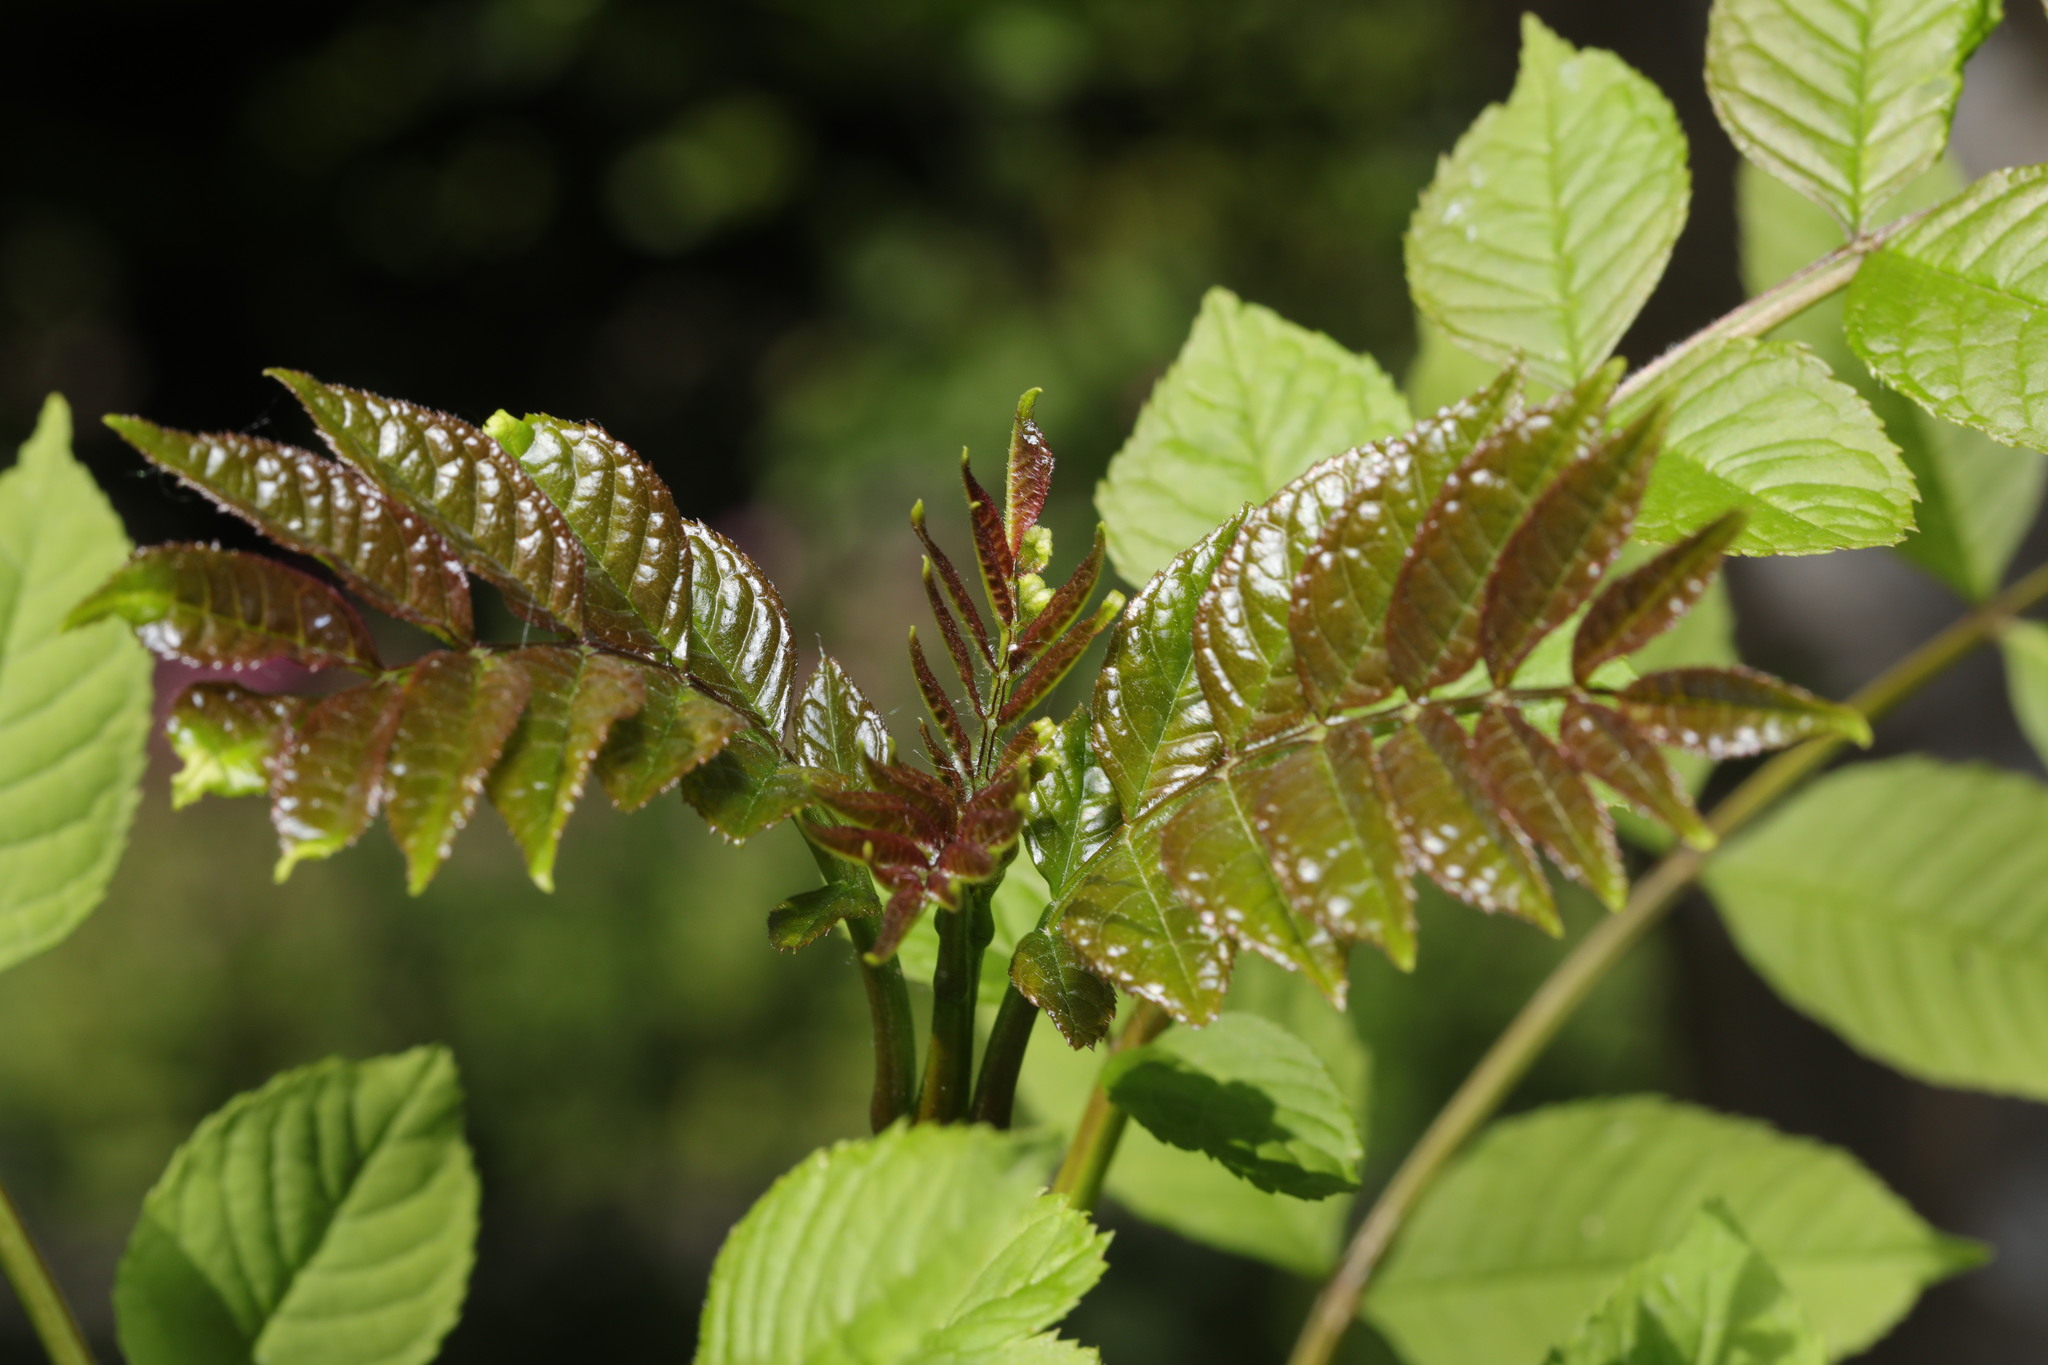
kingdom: Plantae
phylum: Tracheophyta
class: Magnoliopsida
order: Lamiales
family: Oleaceae
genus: Fraxinus
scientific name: Fraxinus excelsior
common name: European ash
